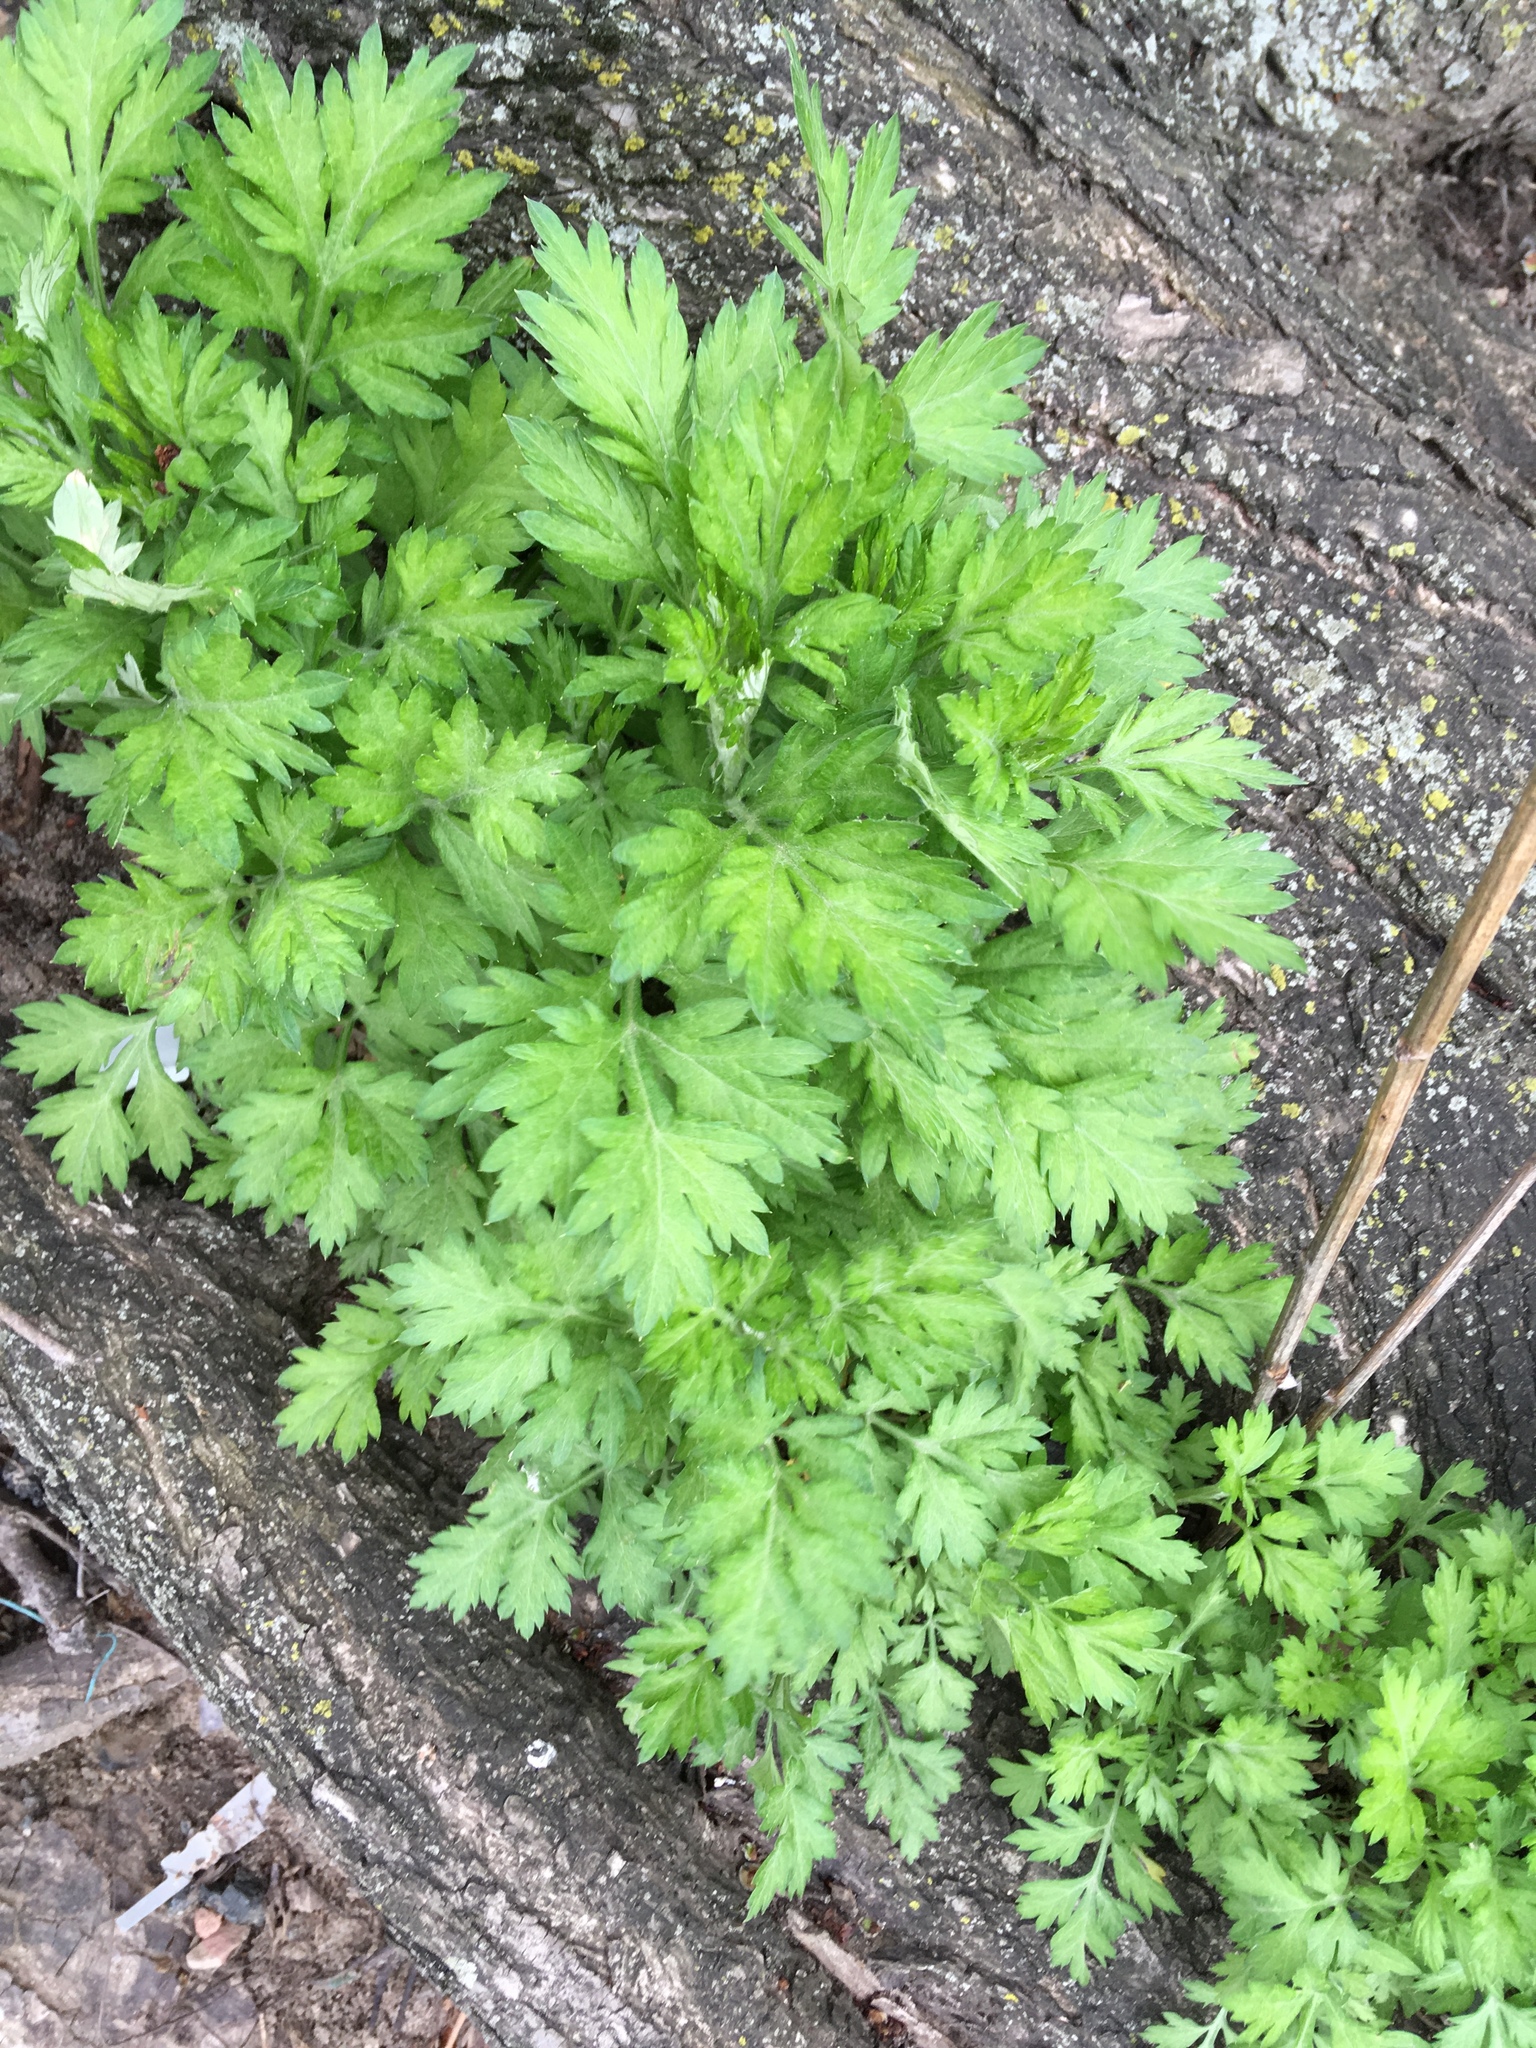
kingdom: Plantae
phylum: Tracheophyta
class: Magnoliopsida
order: Asterales
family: Asteraceae
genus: Artemisia
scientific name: Artemisia vulgaris
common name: Mugwort
